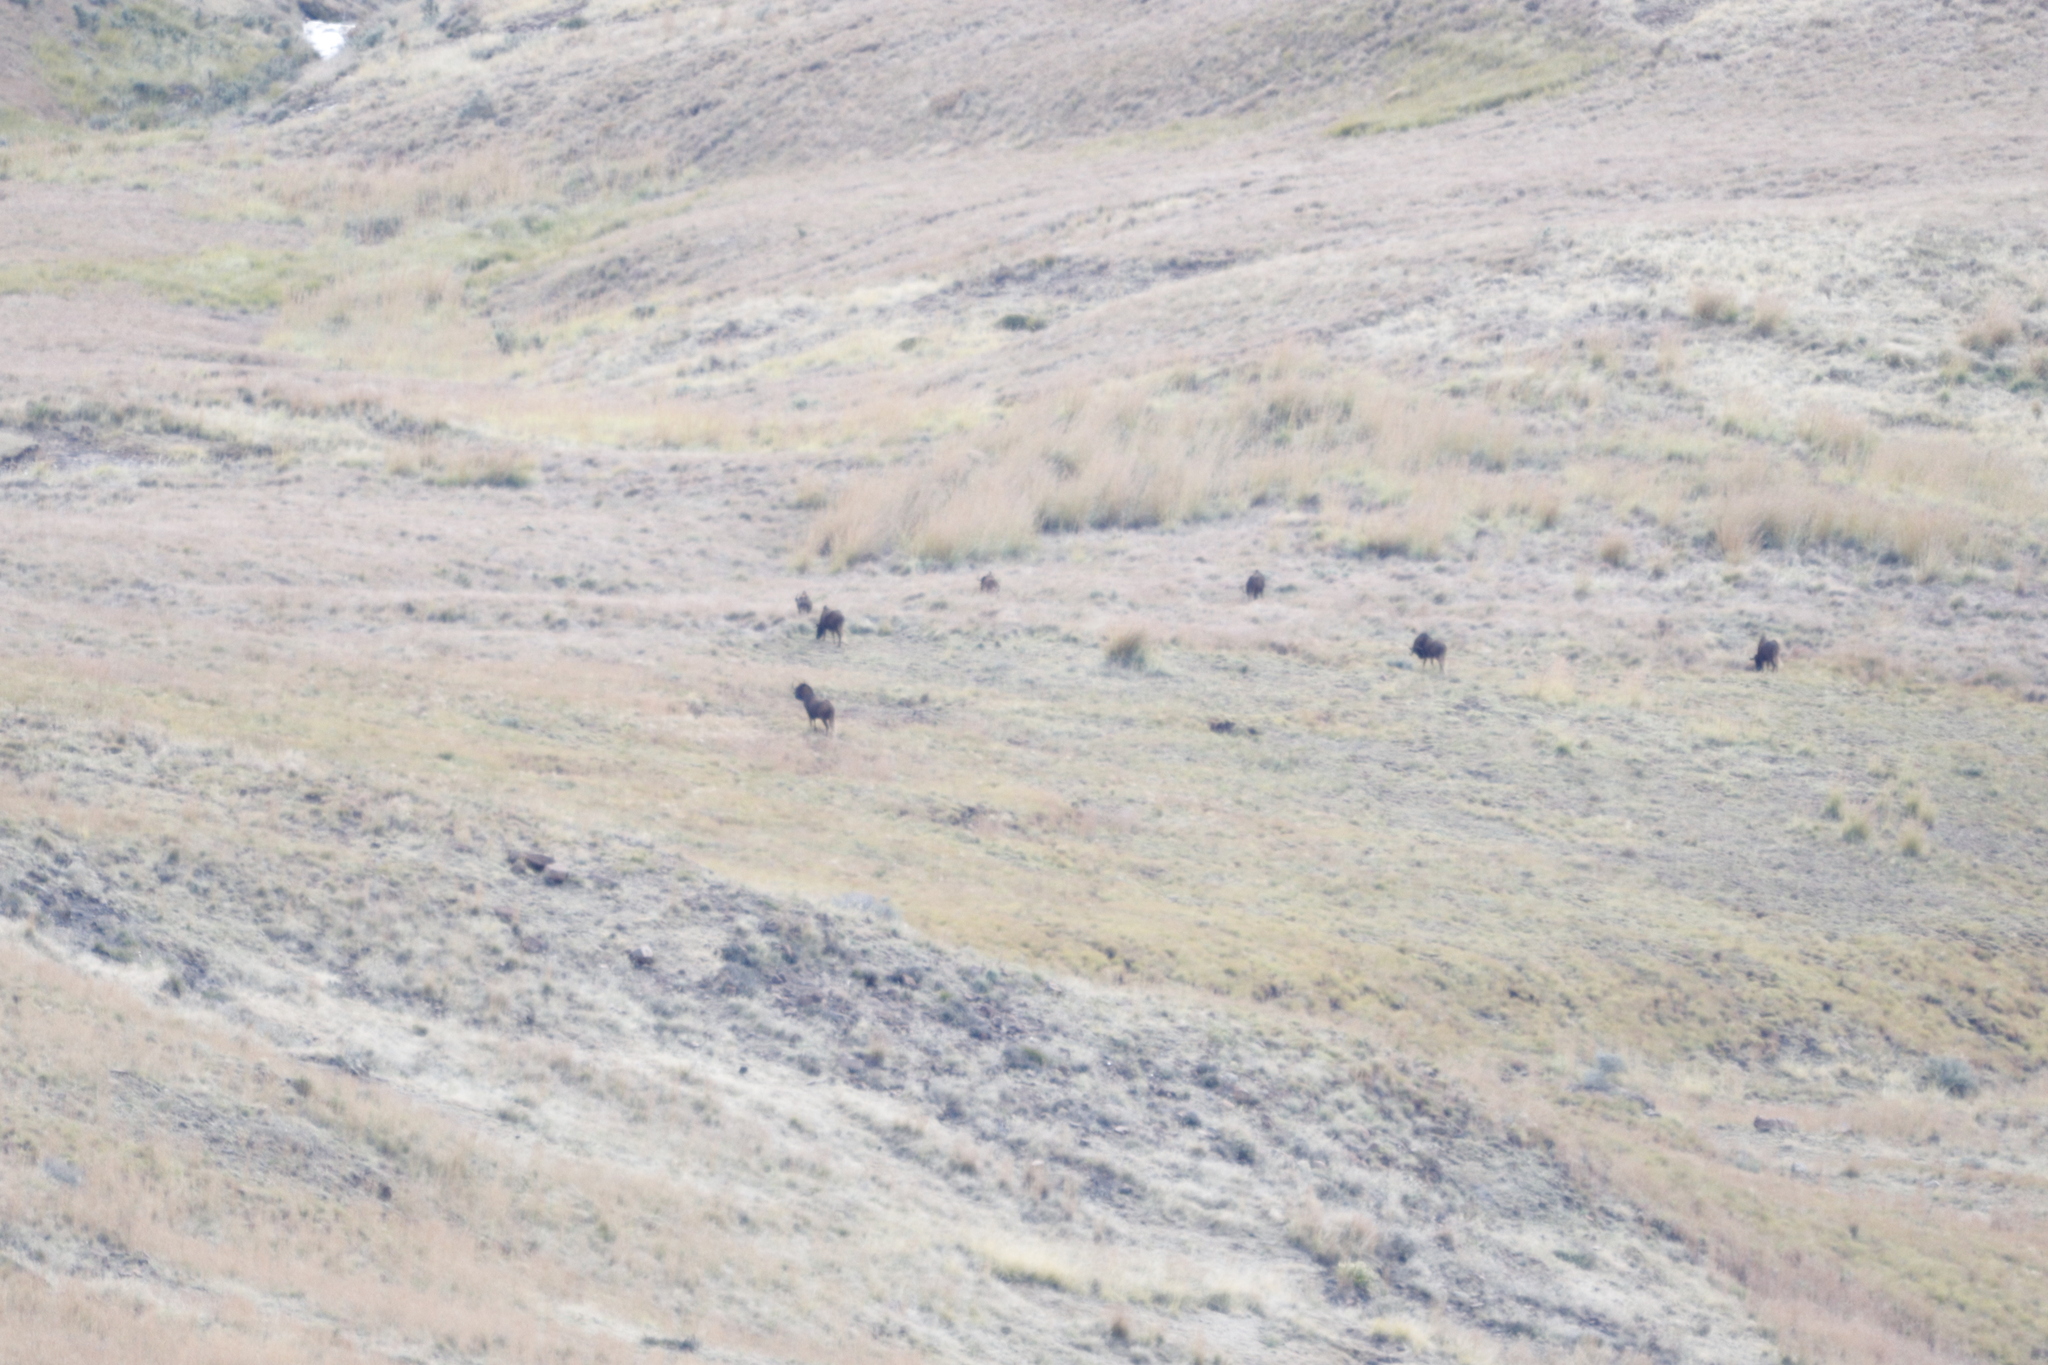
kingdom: Animalia
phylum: Chordata
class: Mammalia
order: Artiodactyla
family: Bovidae
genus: Connochaetes
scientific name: Connochaetes gnou
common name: Black wildebeest
